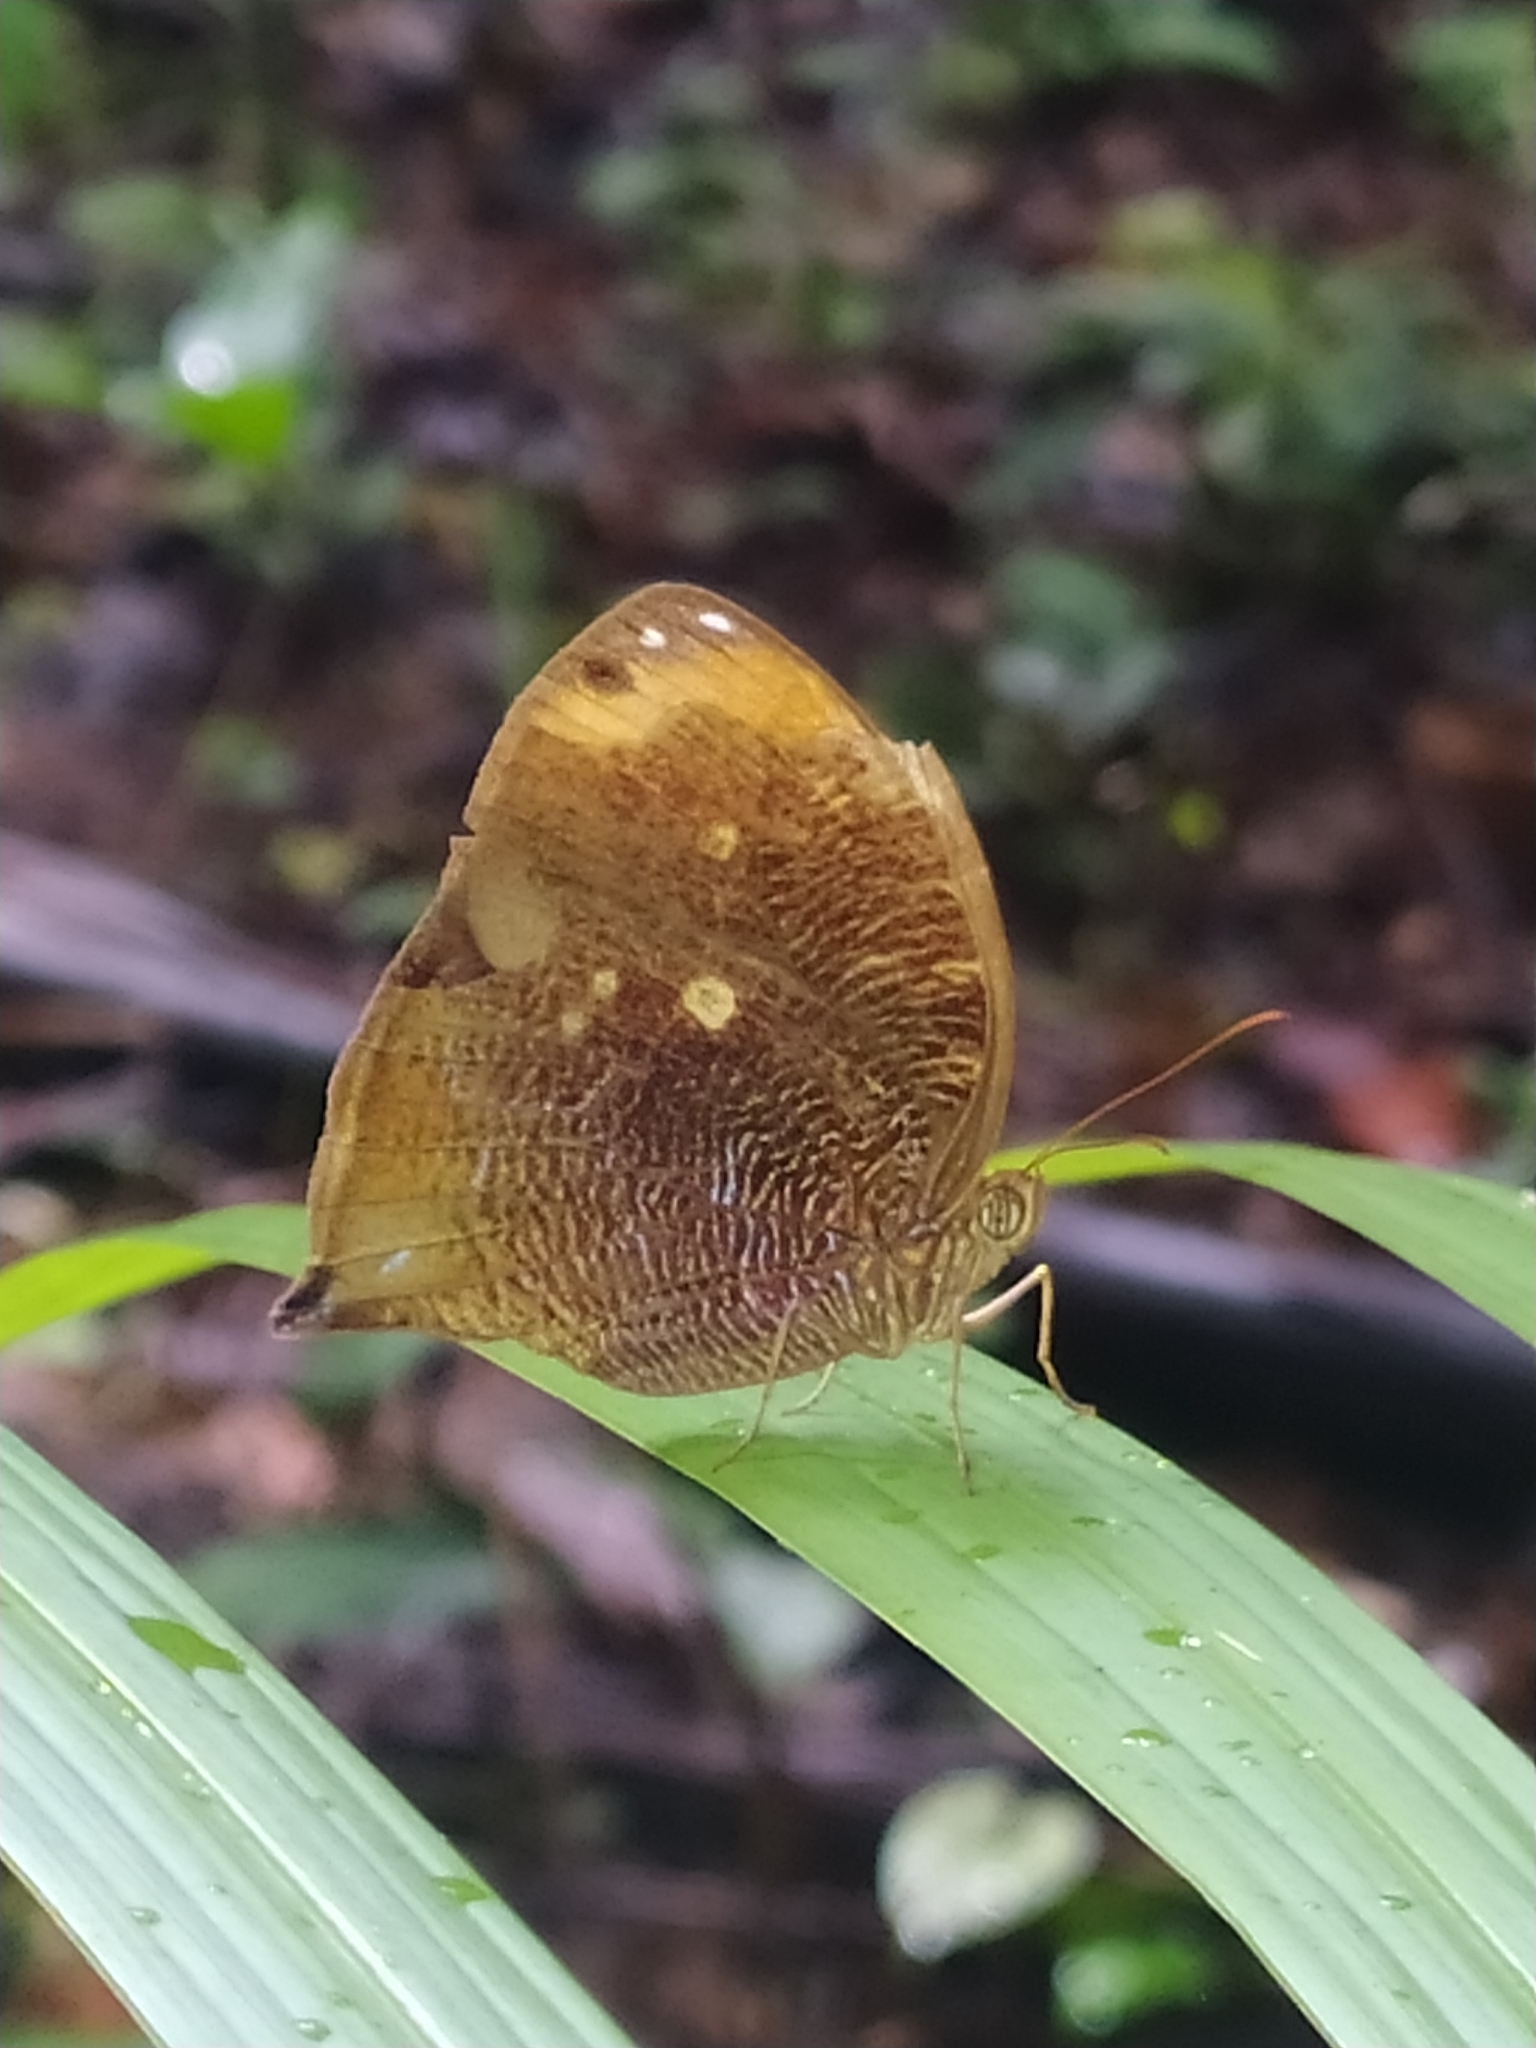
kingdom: Animalia
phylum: Arthropoda
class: Insecta
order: Lepidoptera
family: Nymphalidae
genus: Bia
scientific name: Bia decaerulea
